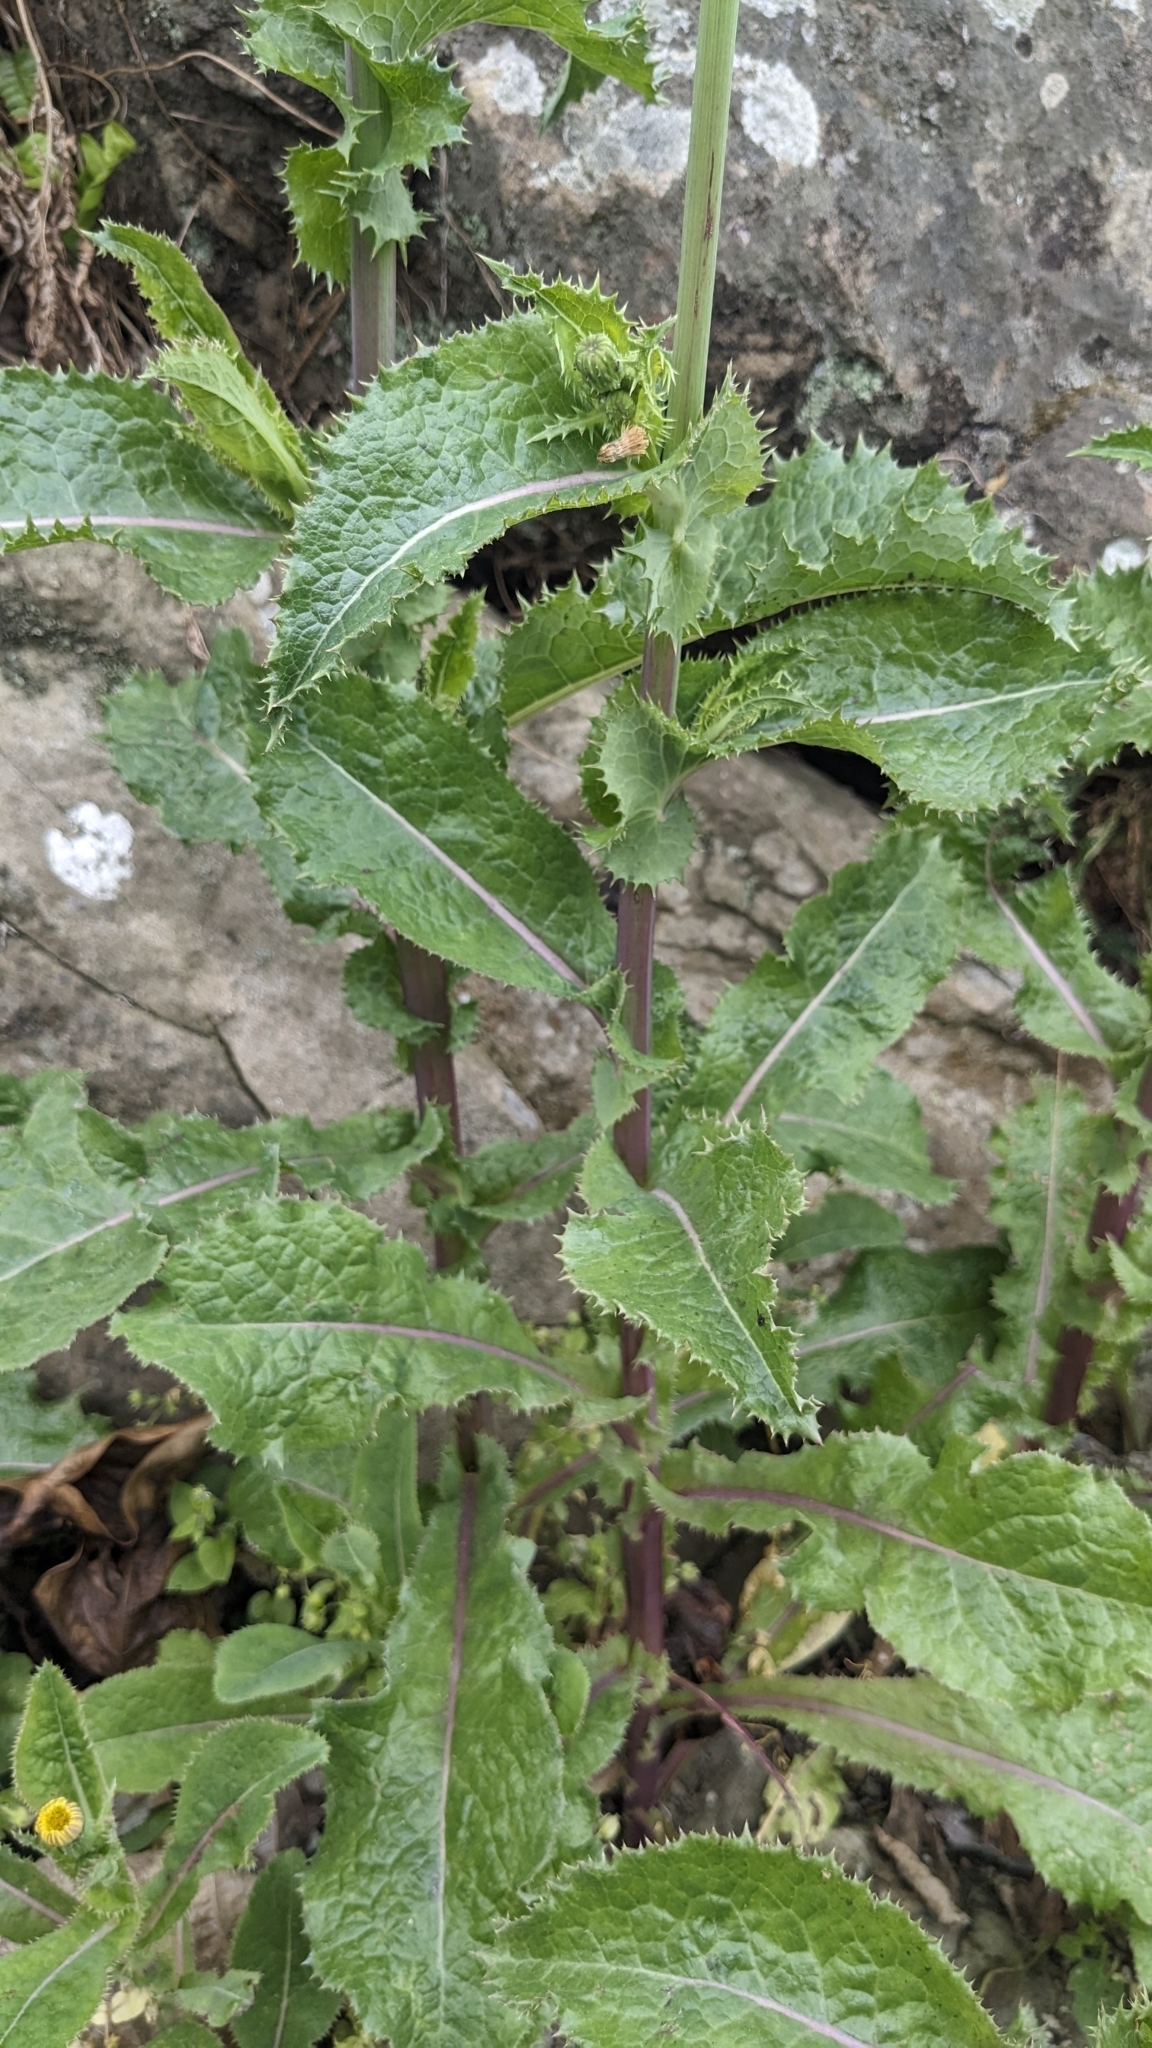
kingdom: Plantae
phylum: Tracheophyta
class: Magnoliopsida
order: Asterales
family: Asteraceae
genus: Sonchus
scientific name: Sonchus asper
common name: Prickly sow-thistle
